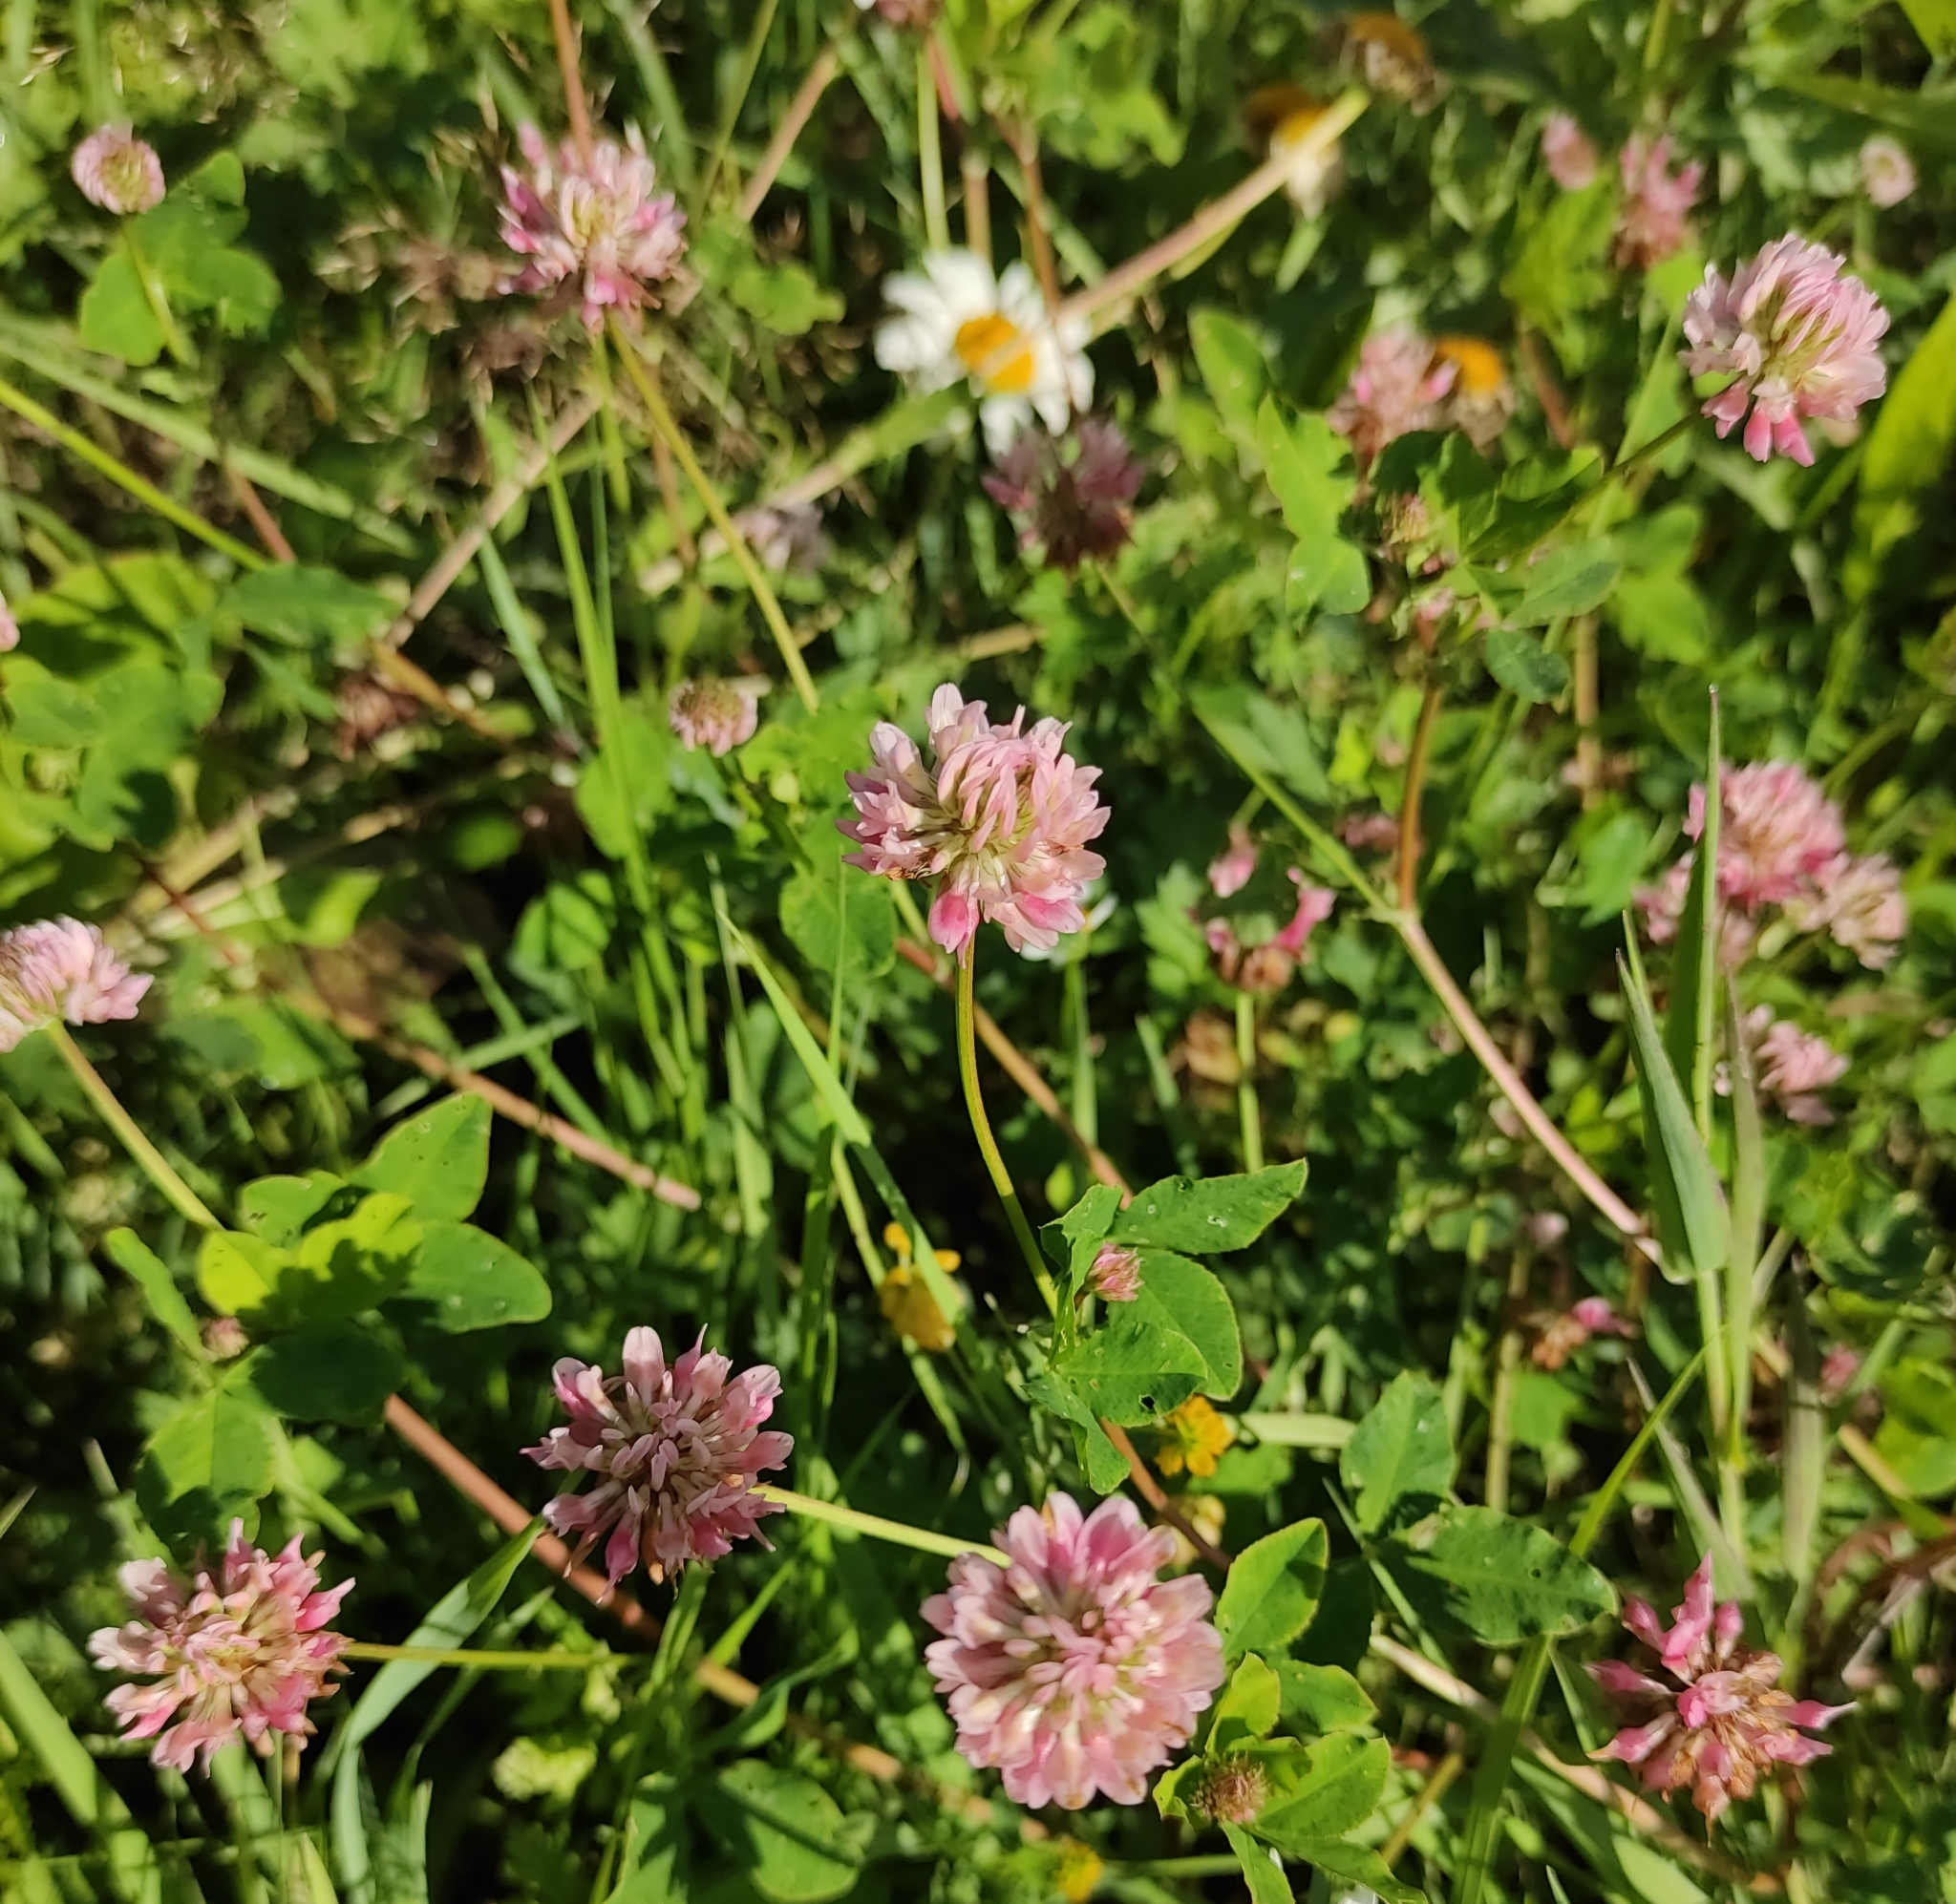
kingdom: Plantae
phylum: Tracheophyta
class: Magnoliopsida
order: Fabales
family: Fabaceae
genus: Trifolium
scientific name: Trifolium hybridum
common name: Alsike clover
